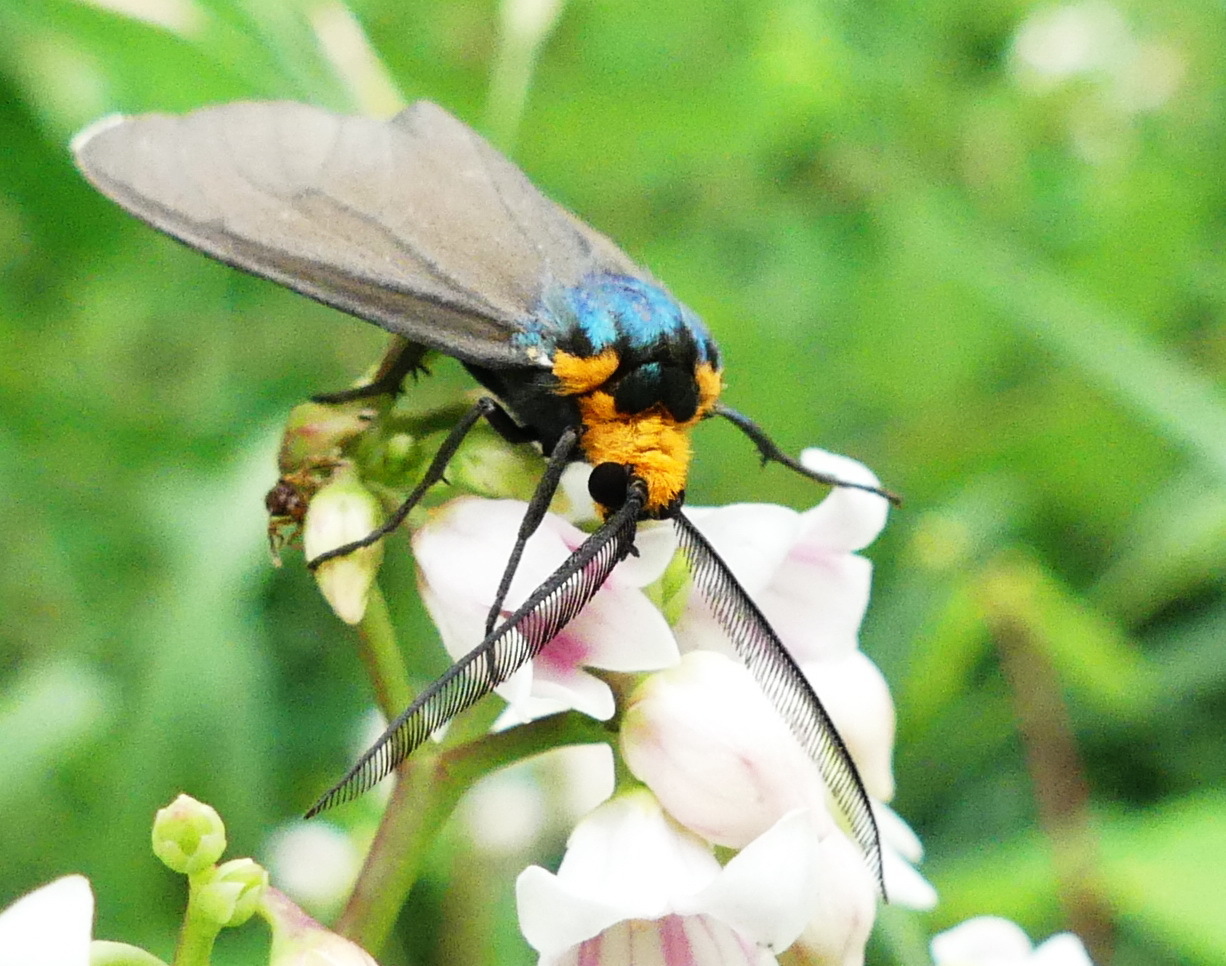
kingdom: Animalia
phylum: Arthropoda
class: Insecta
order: Lepidoptera
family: Erebidae
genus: Ctenucha
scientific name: Ctenucha virginica
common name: Virginia ctenucha moth
